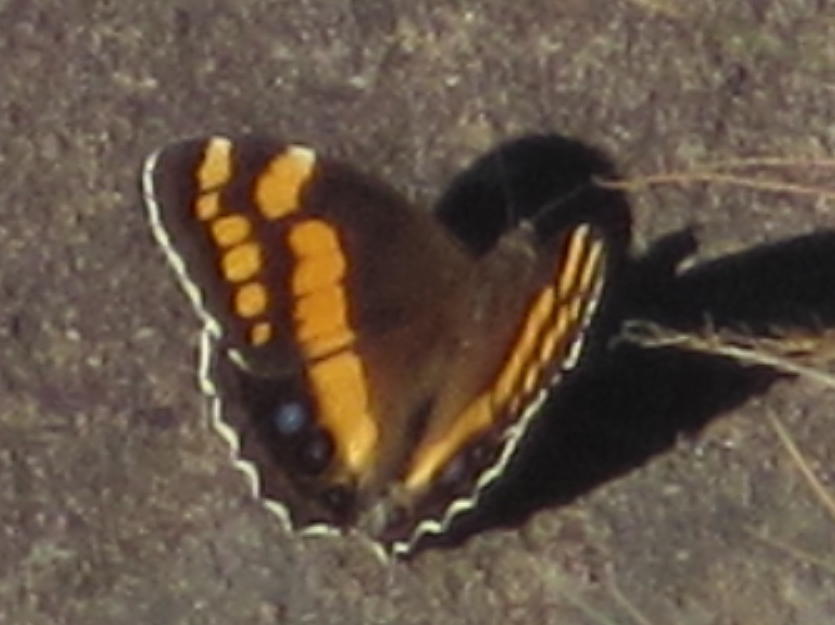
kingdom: Animalia
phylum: Arthropoda
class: Insecta
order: Lepidoptera
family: Nymphalidae
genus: Meneris
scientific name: Meneris Aeropetes tulbaghia
